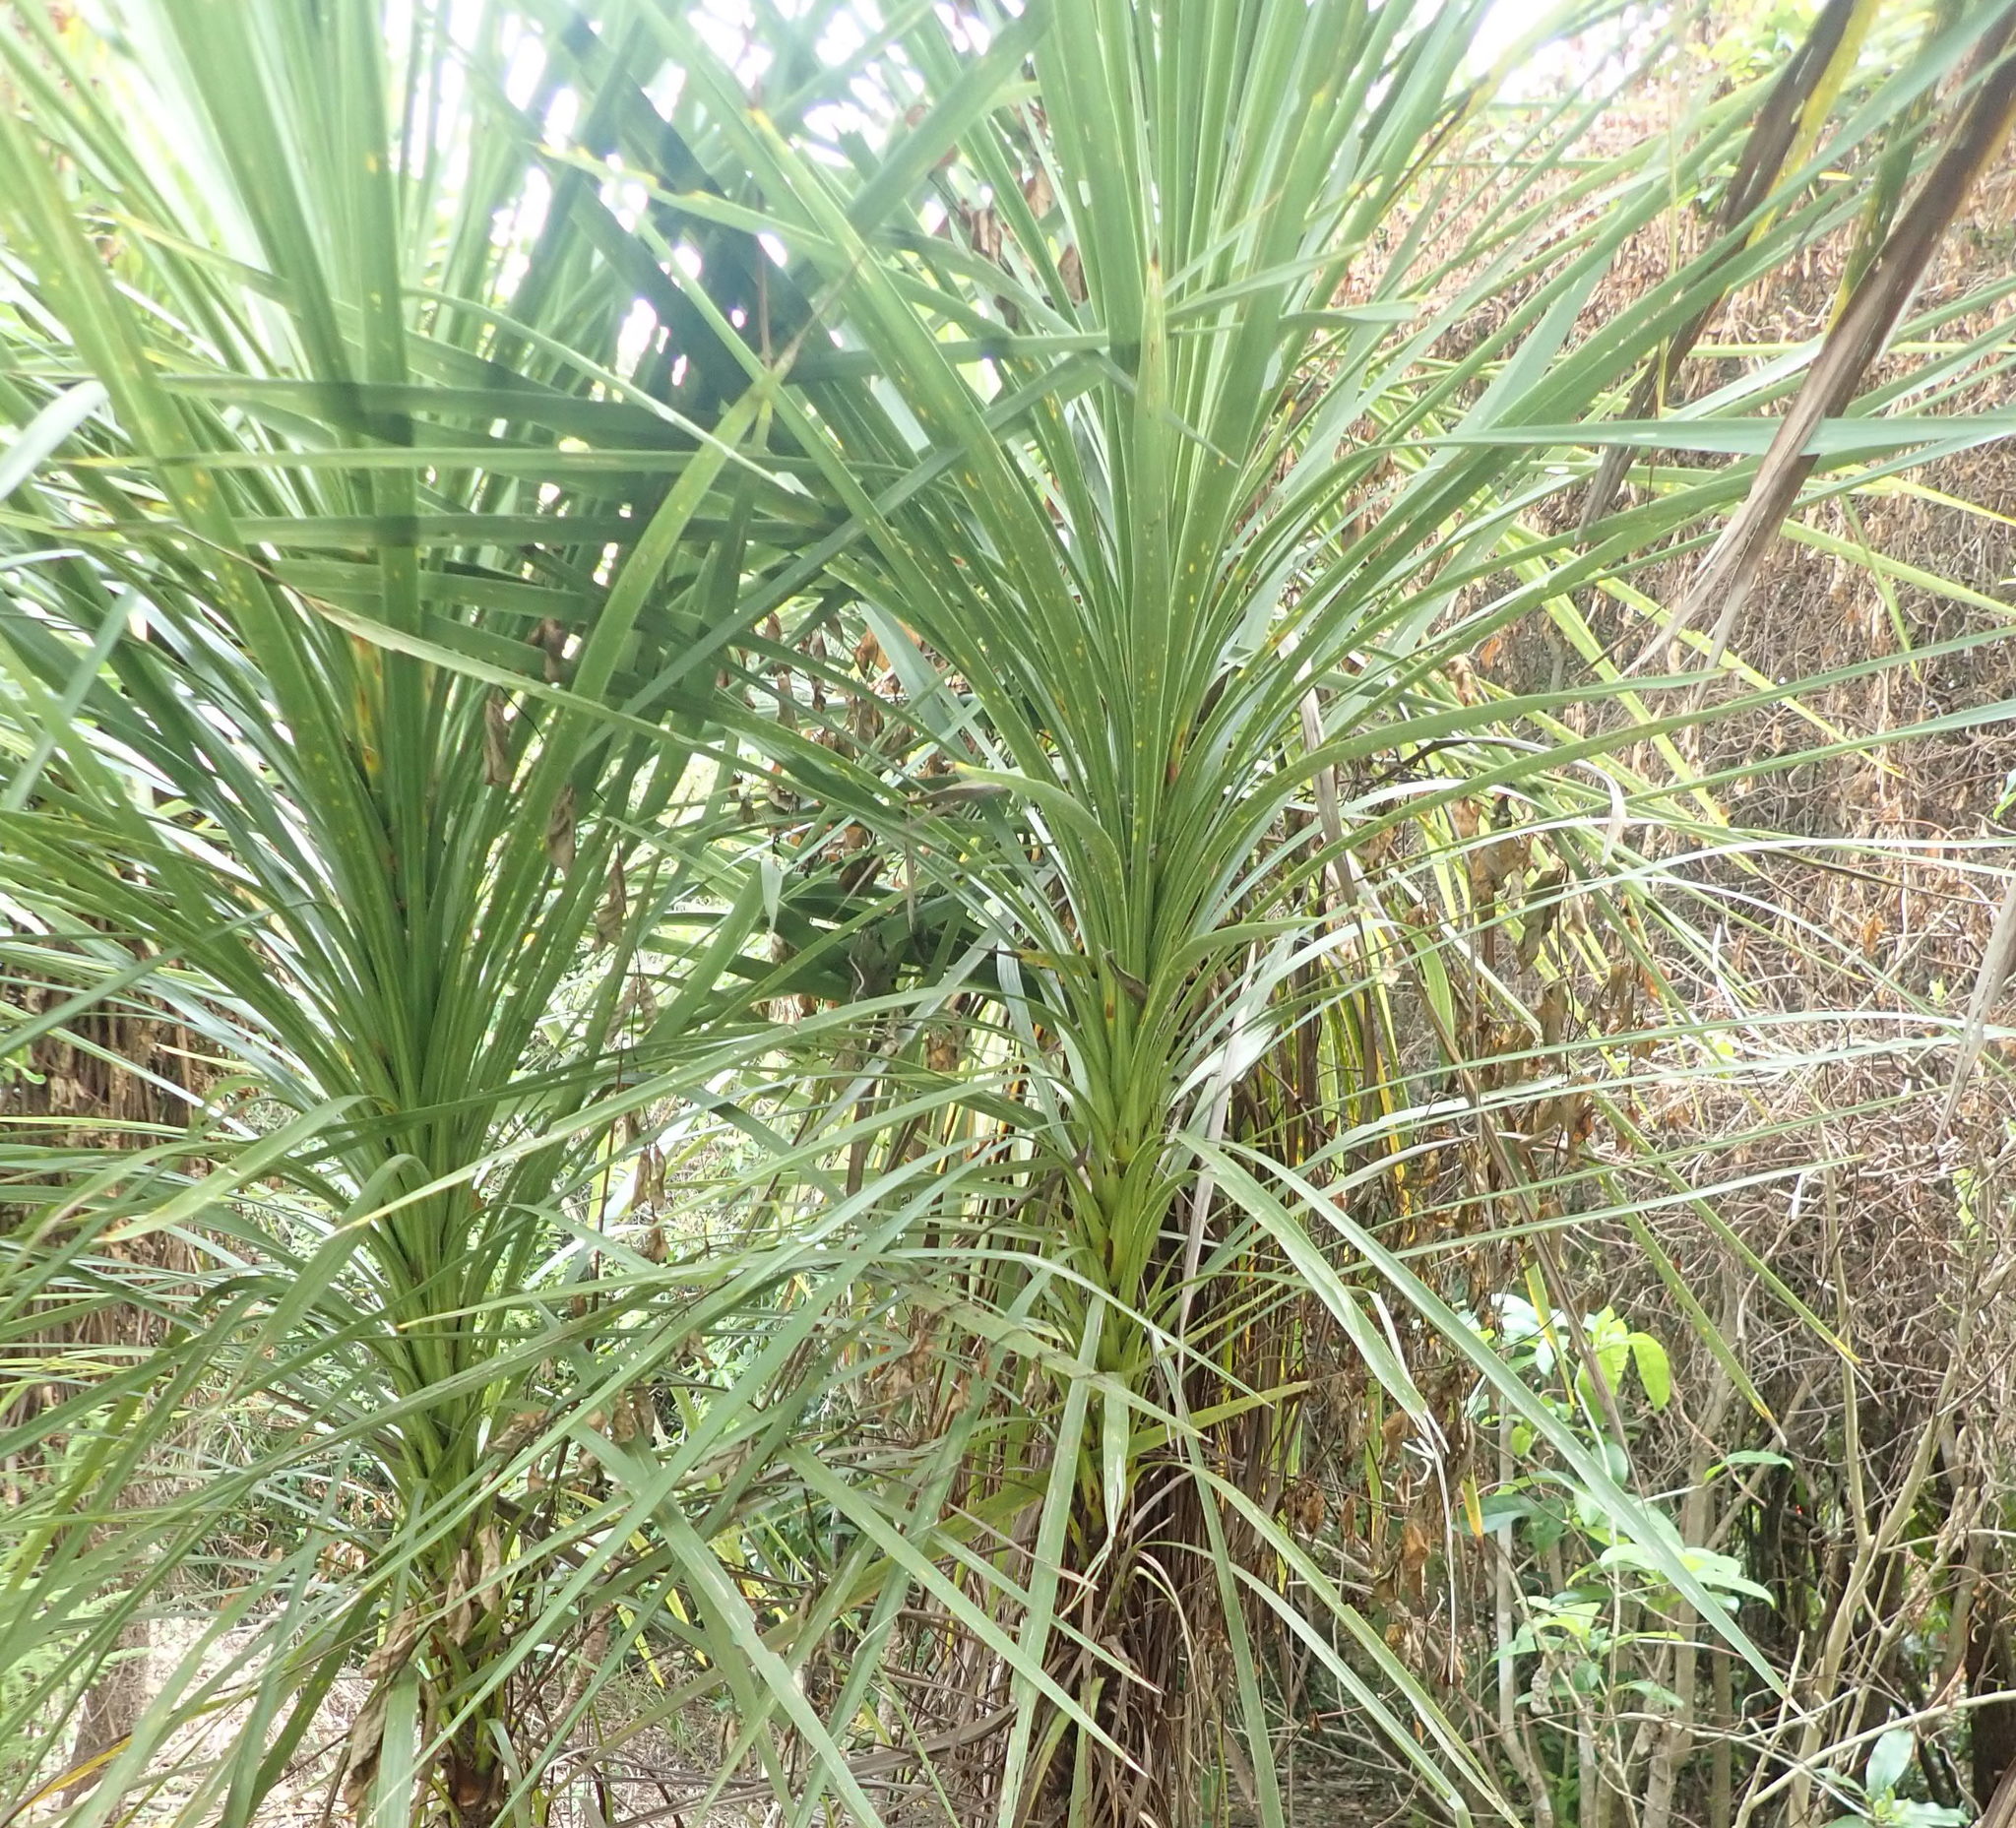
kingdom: Plantae
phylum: Tracheophyta
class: Liliopsida
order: Asparagales
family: Asparagaceae
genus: Cordyline
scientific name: Cordyline australis
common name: Cabbage-palm
